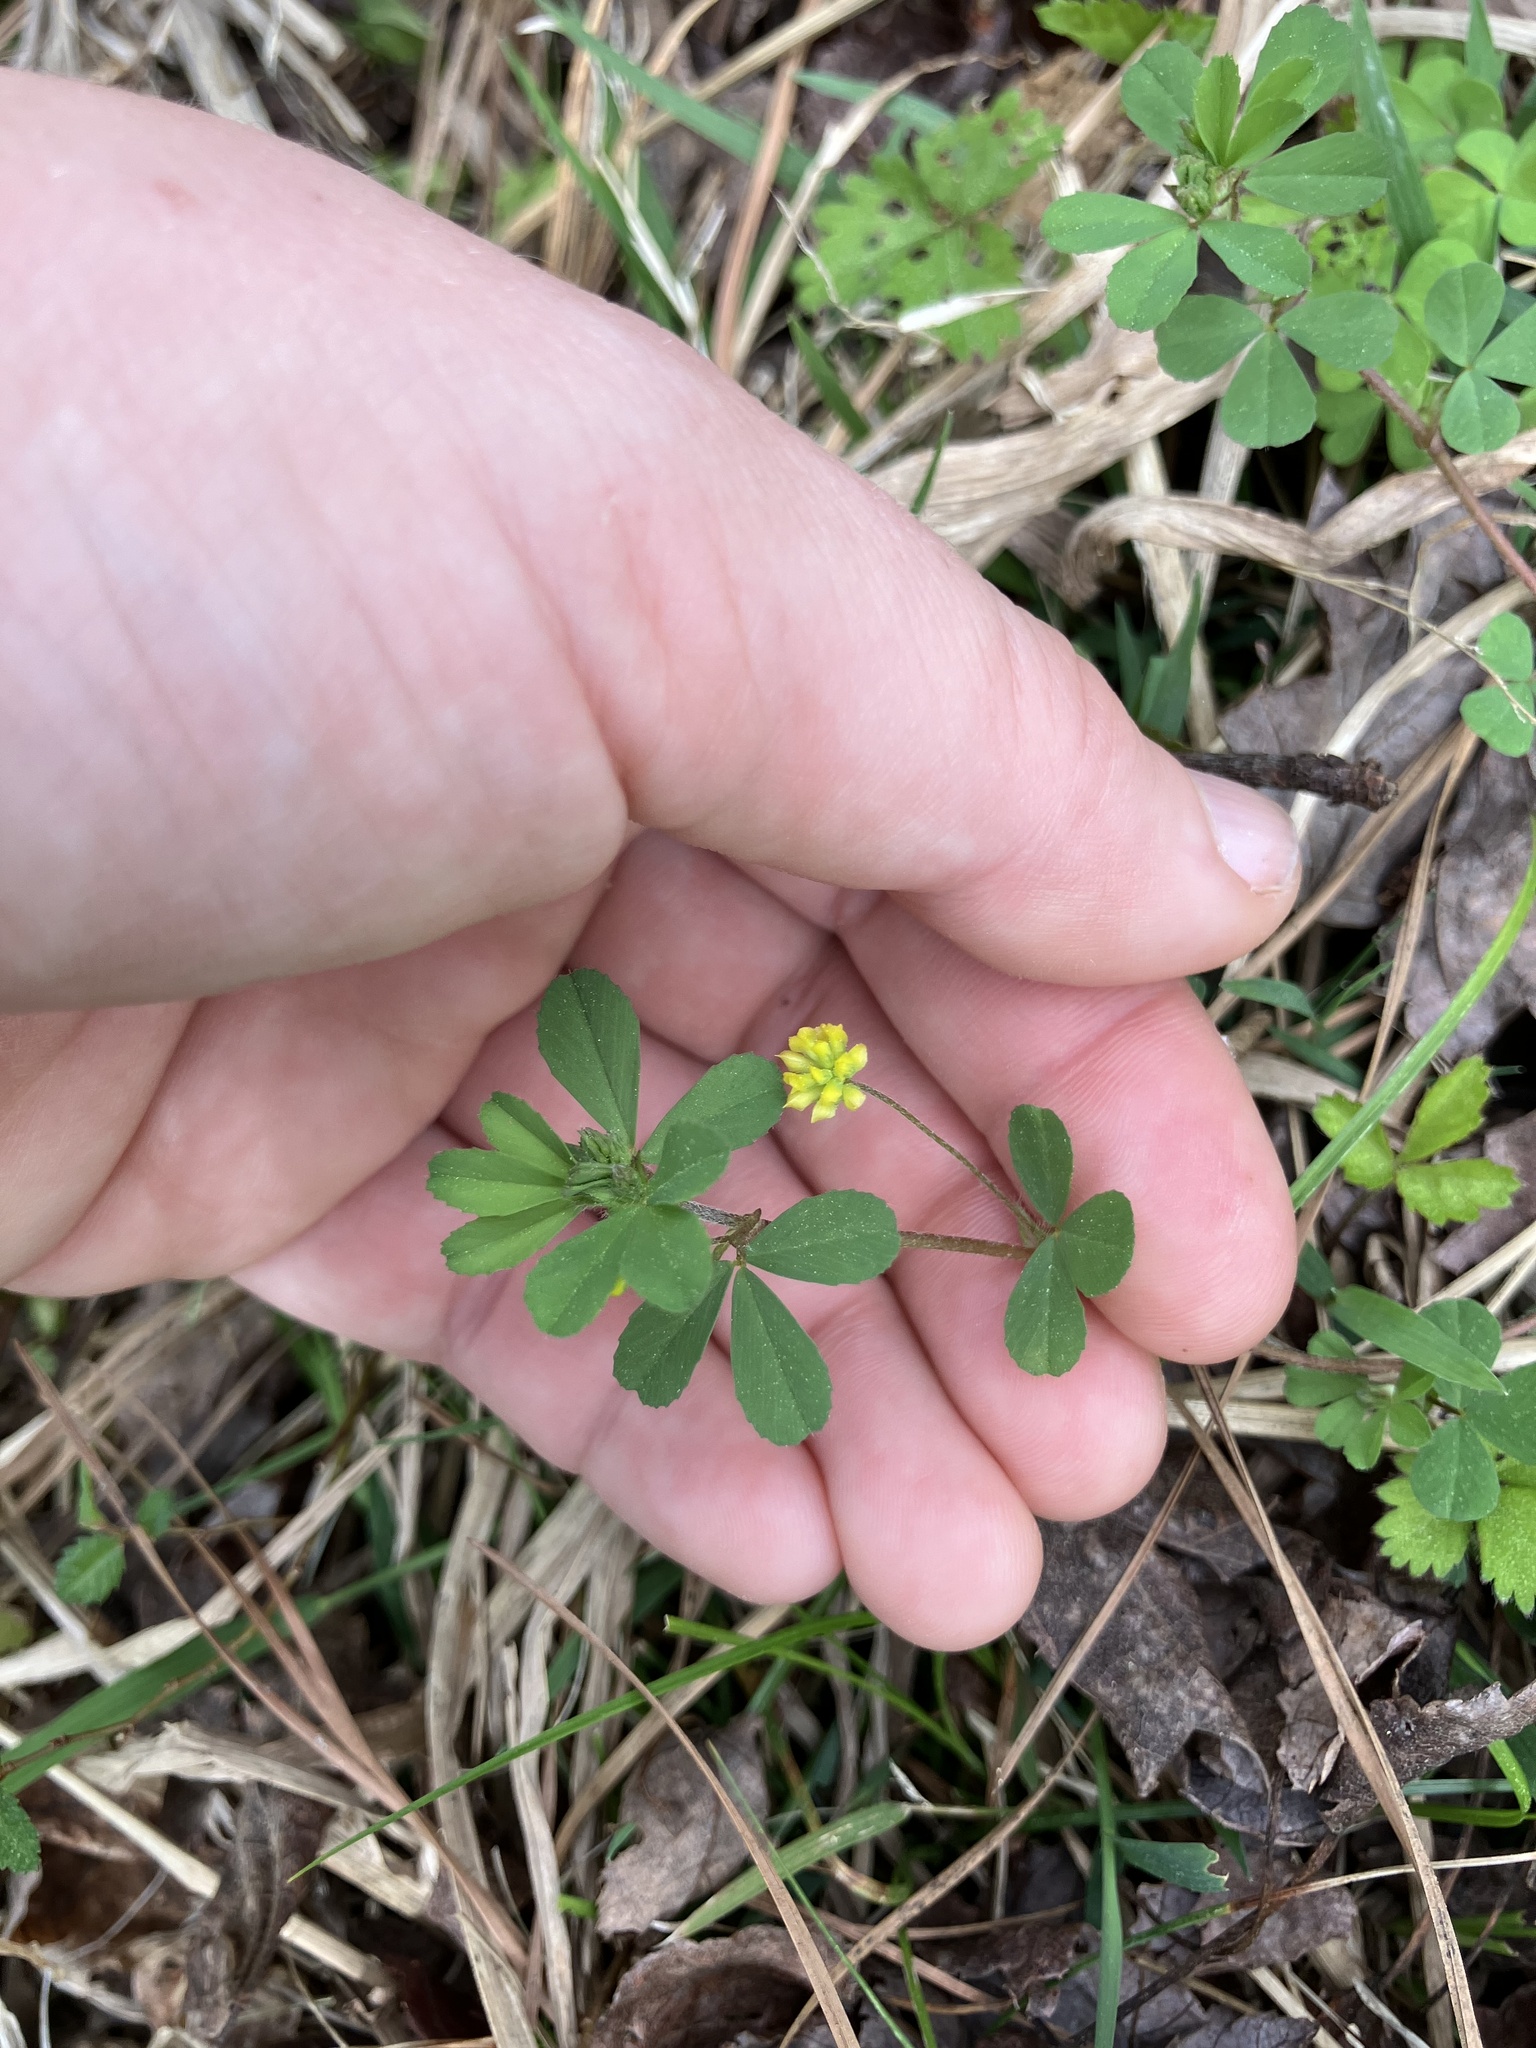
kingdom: Plantae
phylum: Tracheophyta
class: Magnoliopsida
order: Fabales
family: Fabaceae
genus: Trifolium
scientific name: Trifolium dubium
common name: Suckling clover
